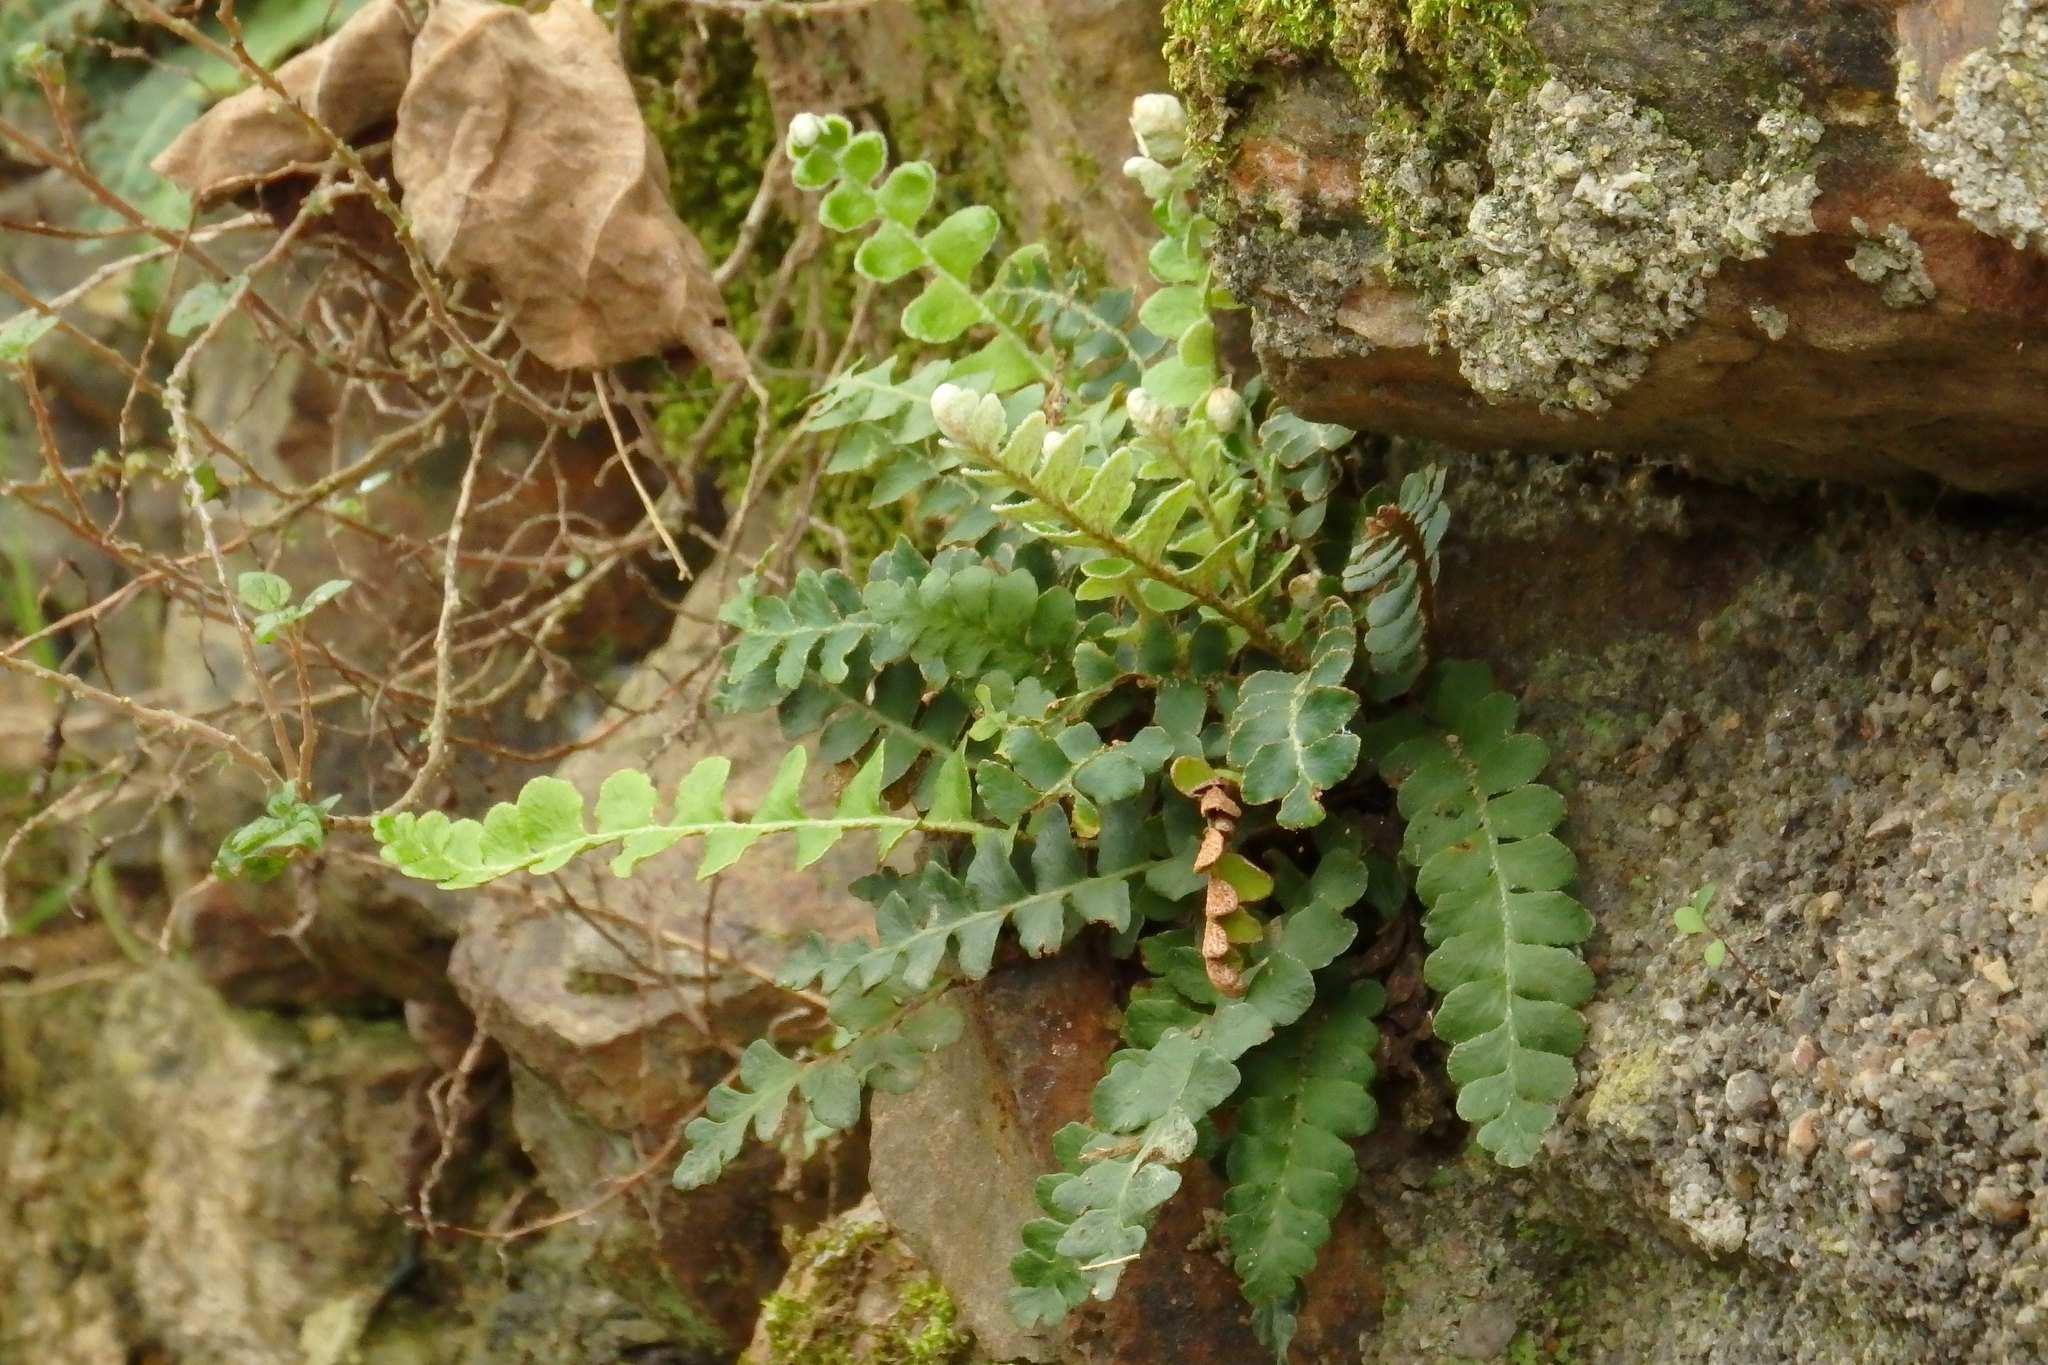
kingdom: Plantae
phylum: Tracheophyta
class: Polypodiopsida
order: Polypodiales
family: Aspleniaceae
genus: Asplenium
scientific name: Asplenium ceterach
